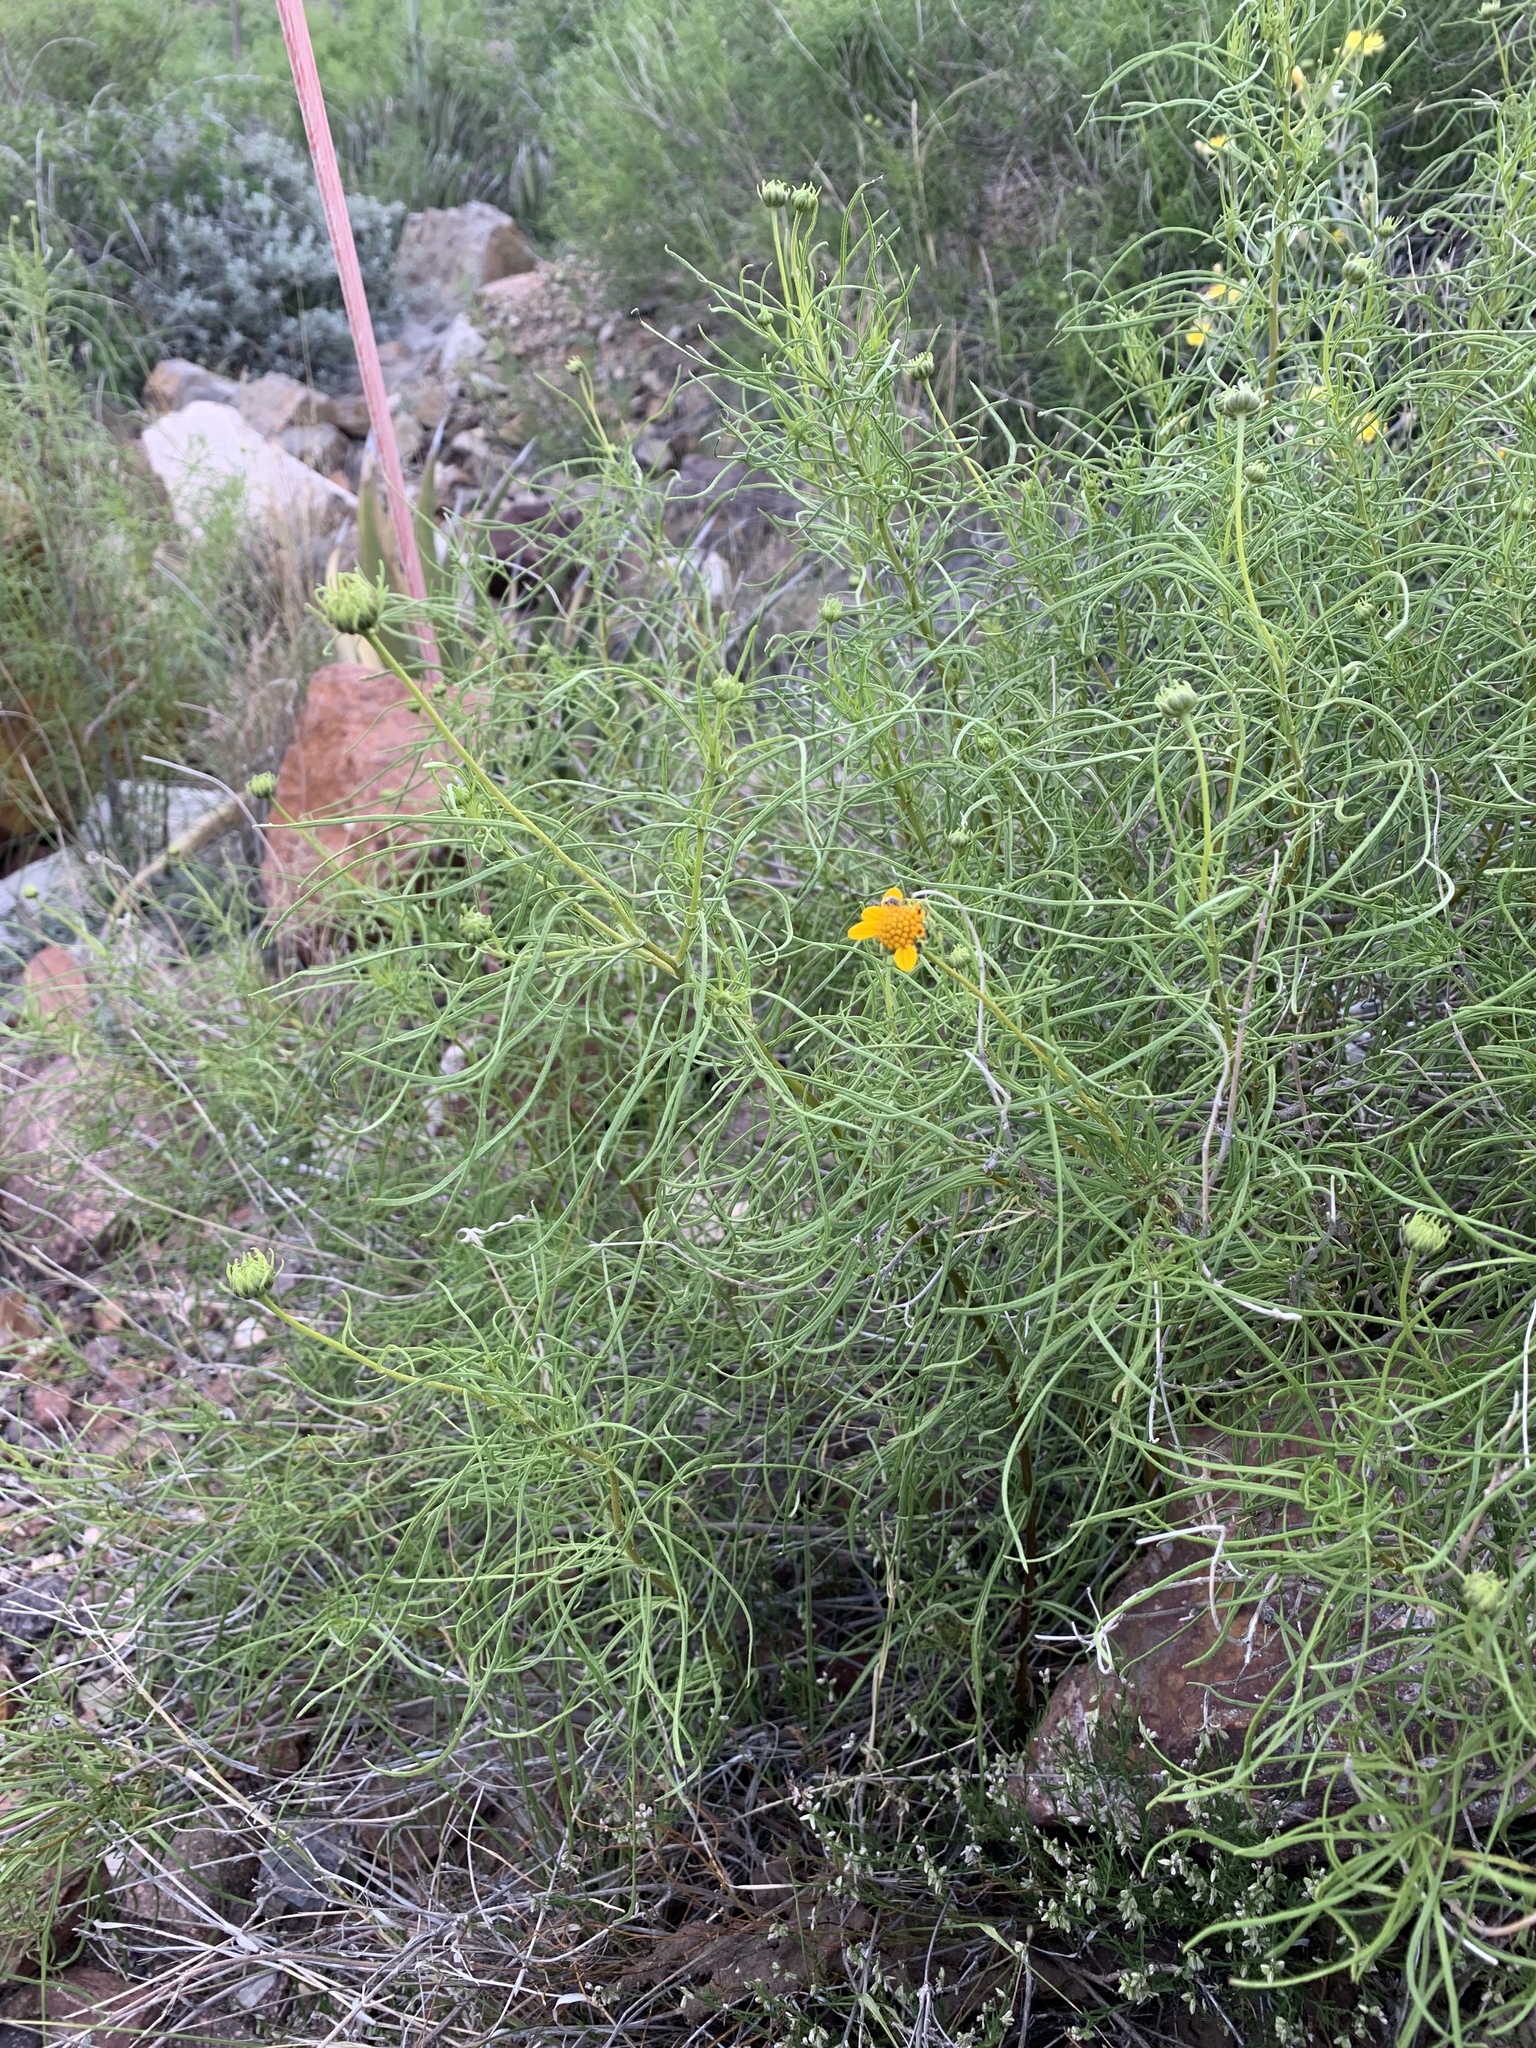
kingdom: Plantae
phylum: Tracheophyta
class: Magnoliopsida
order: Asterales
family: Asteraceae
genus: Sidneya
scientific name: Sidneya tenuifolia
